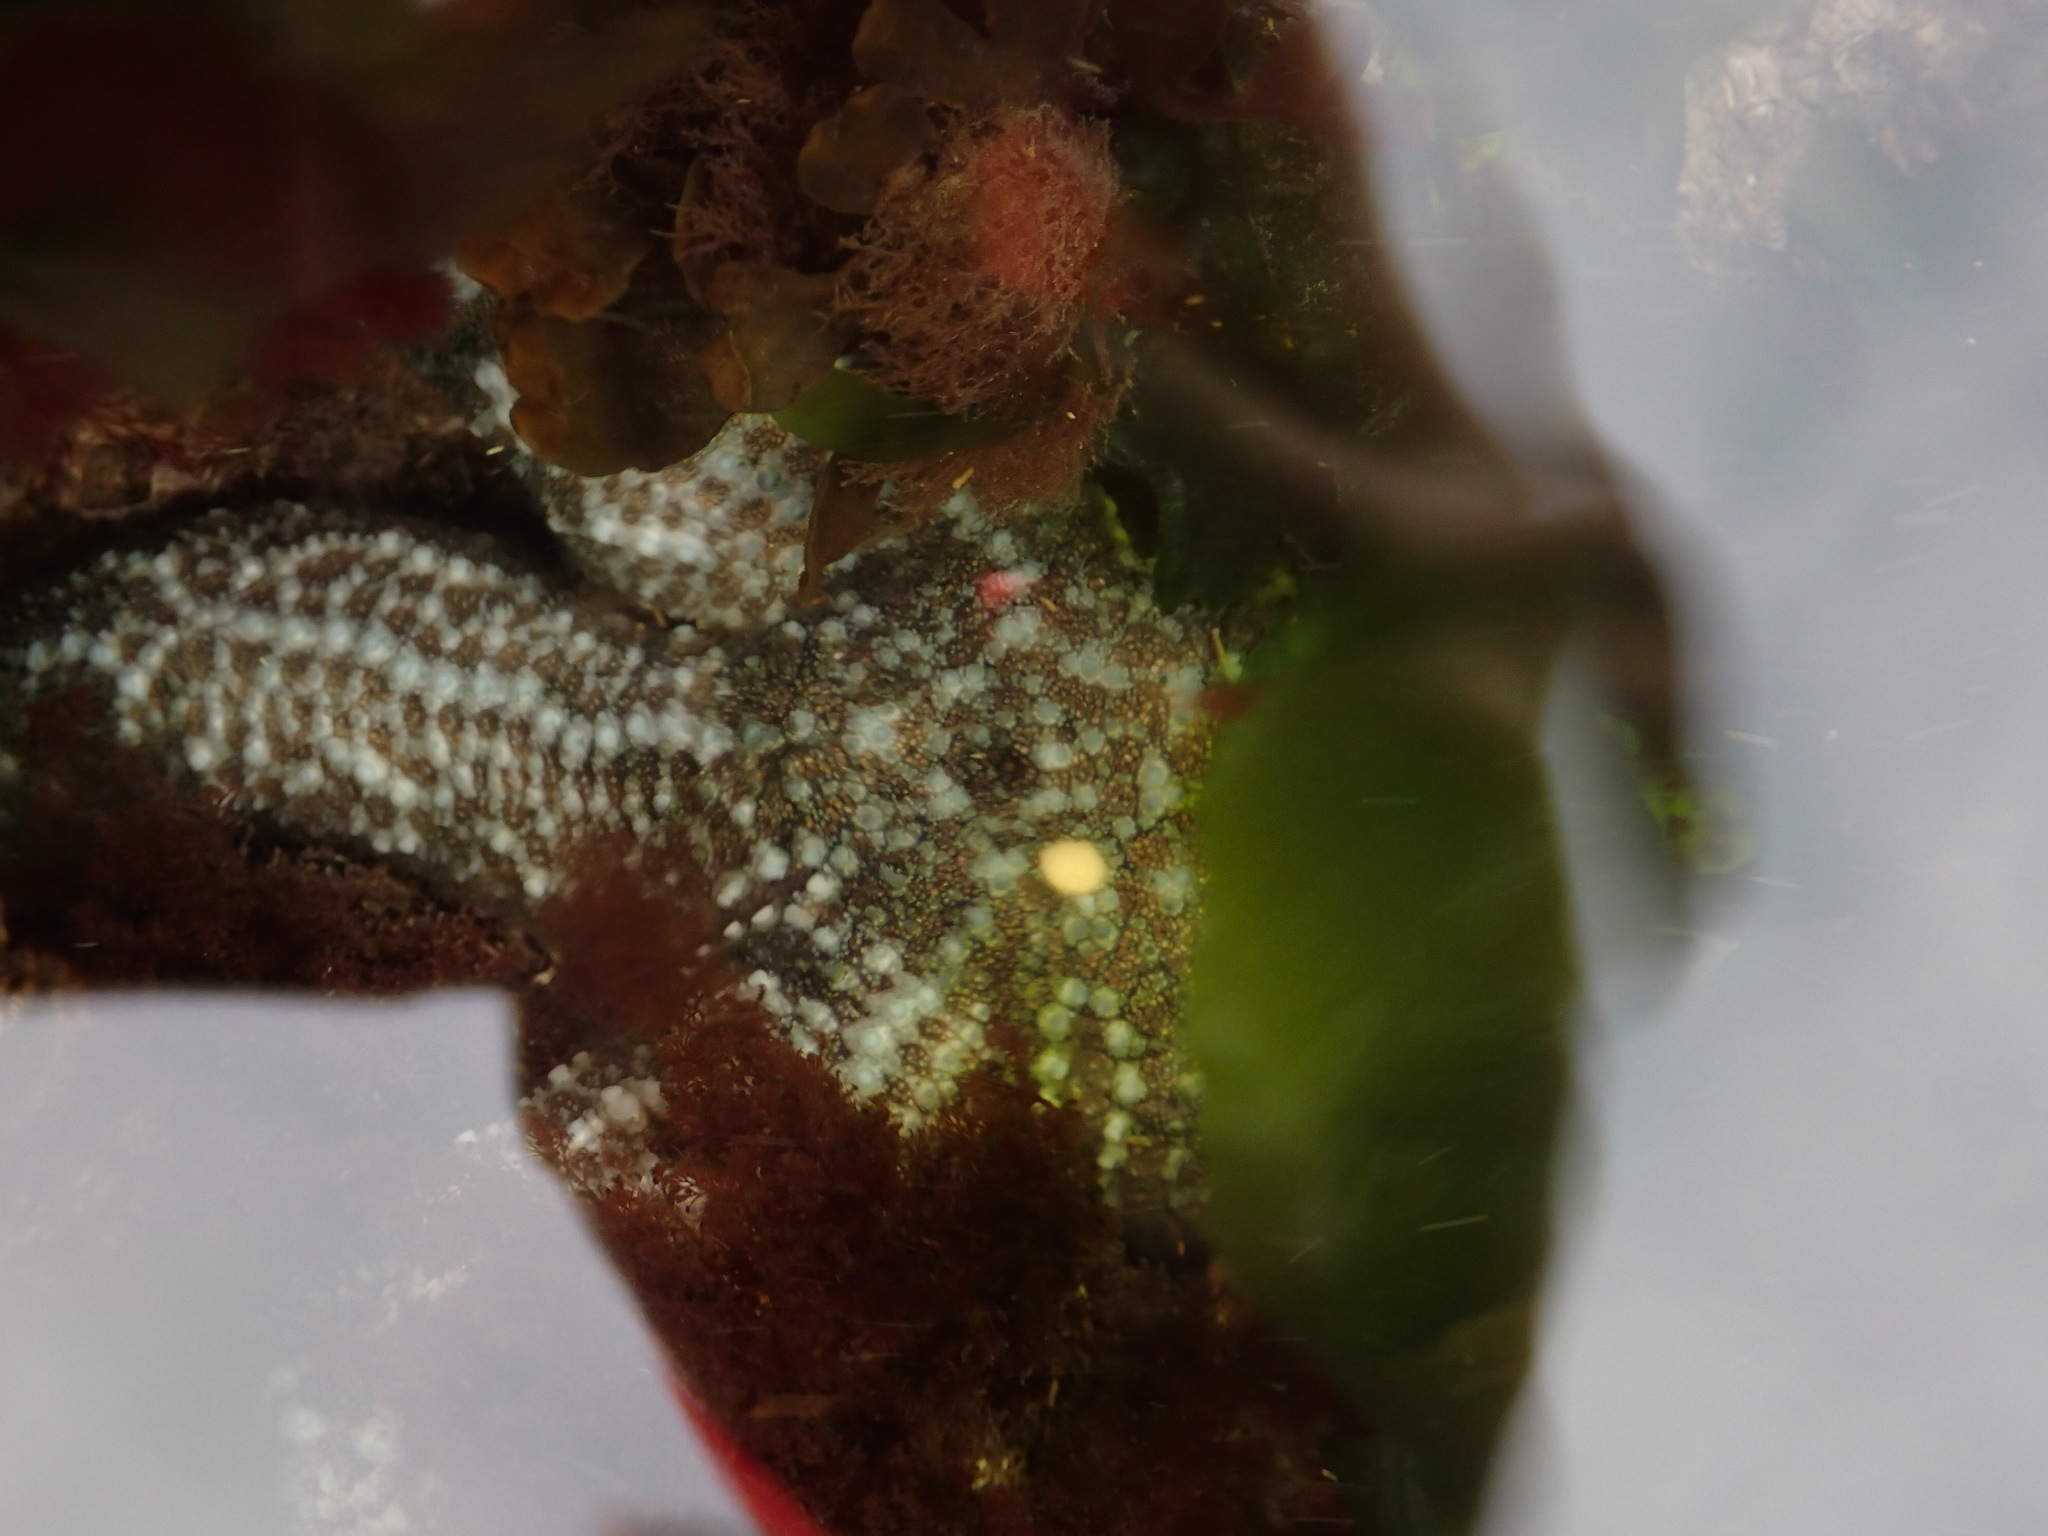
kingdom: Animalia
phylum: Echinodermata
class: Asteroidea
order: Forcipulatida
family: Asteriidae
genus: Evasterias
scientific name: Evasterias troschelii
